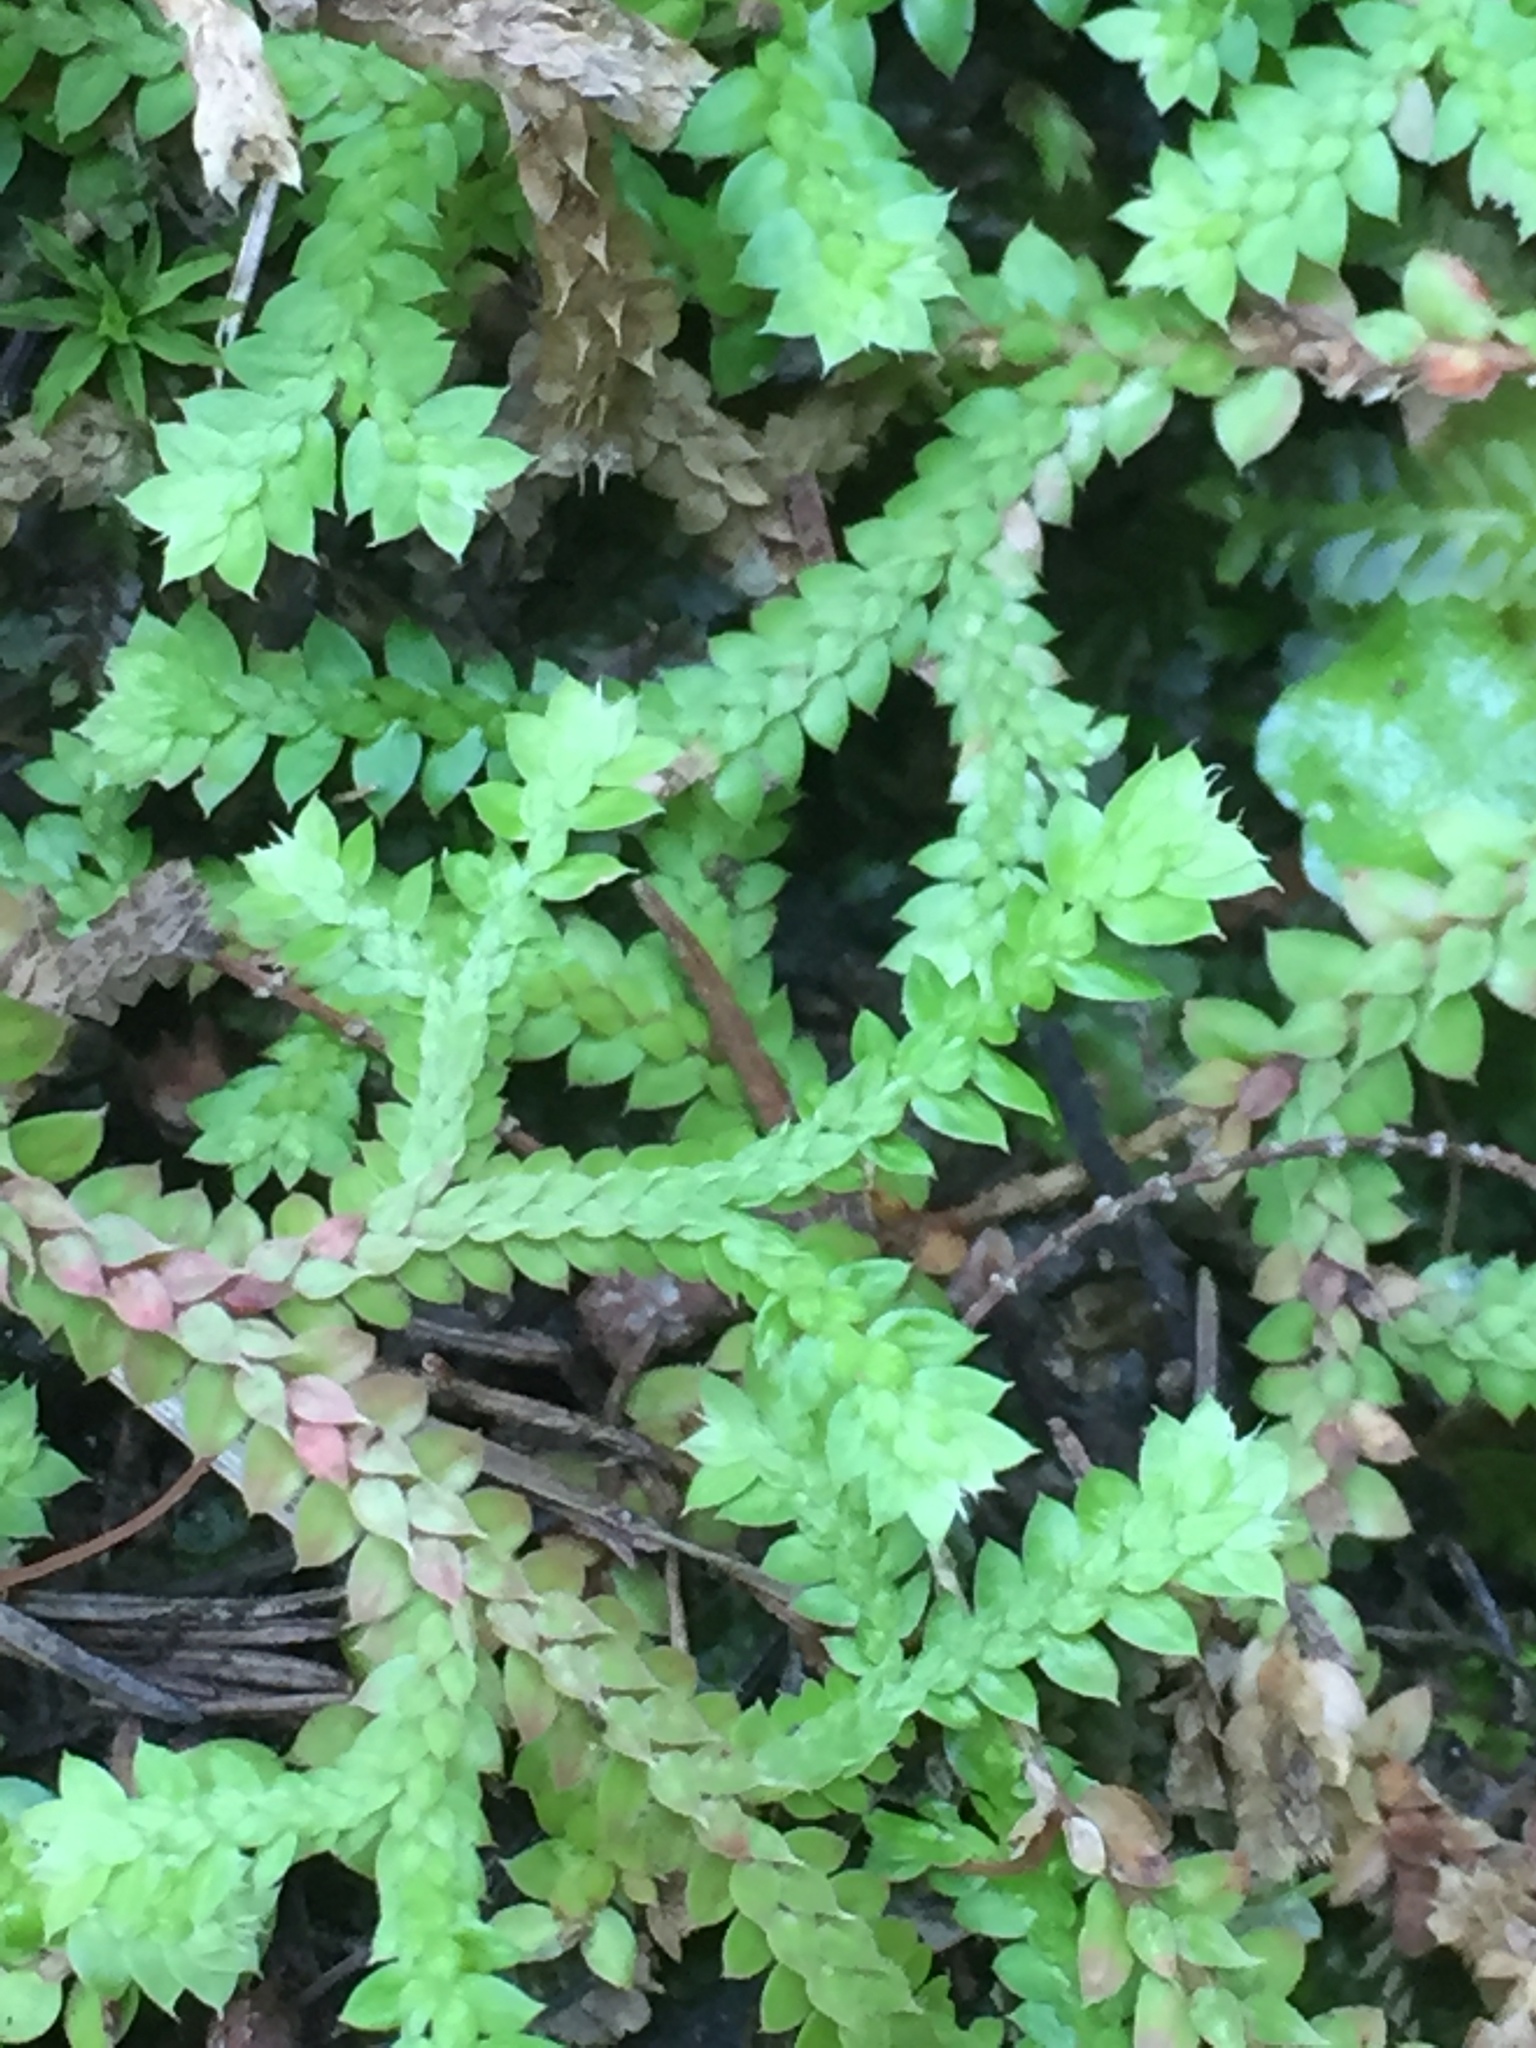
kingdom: Plantae
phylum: Tracheophyta
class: Lycopodiopsida
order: Selaginellales
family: Selaginellaceae
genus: Selaginella
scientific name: Selaginella denticulata
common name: Toothed-leaved clubmoss
